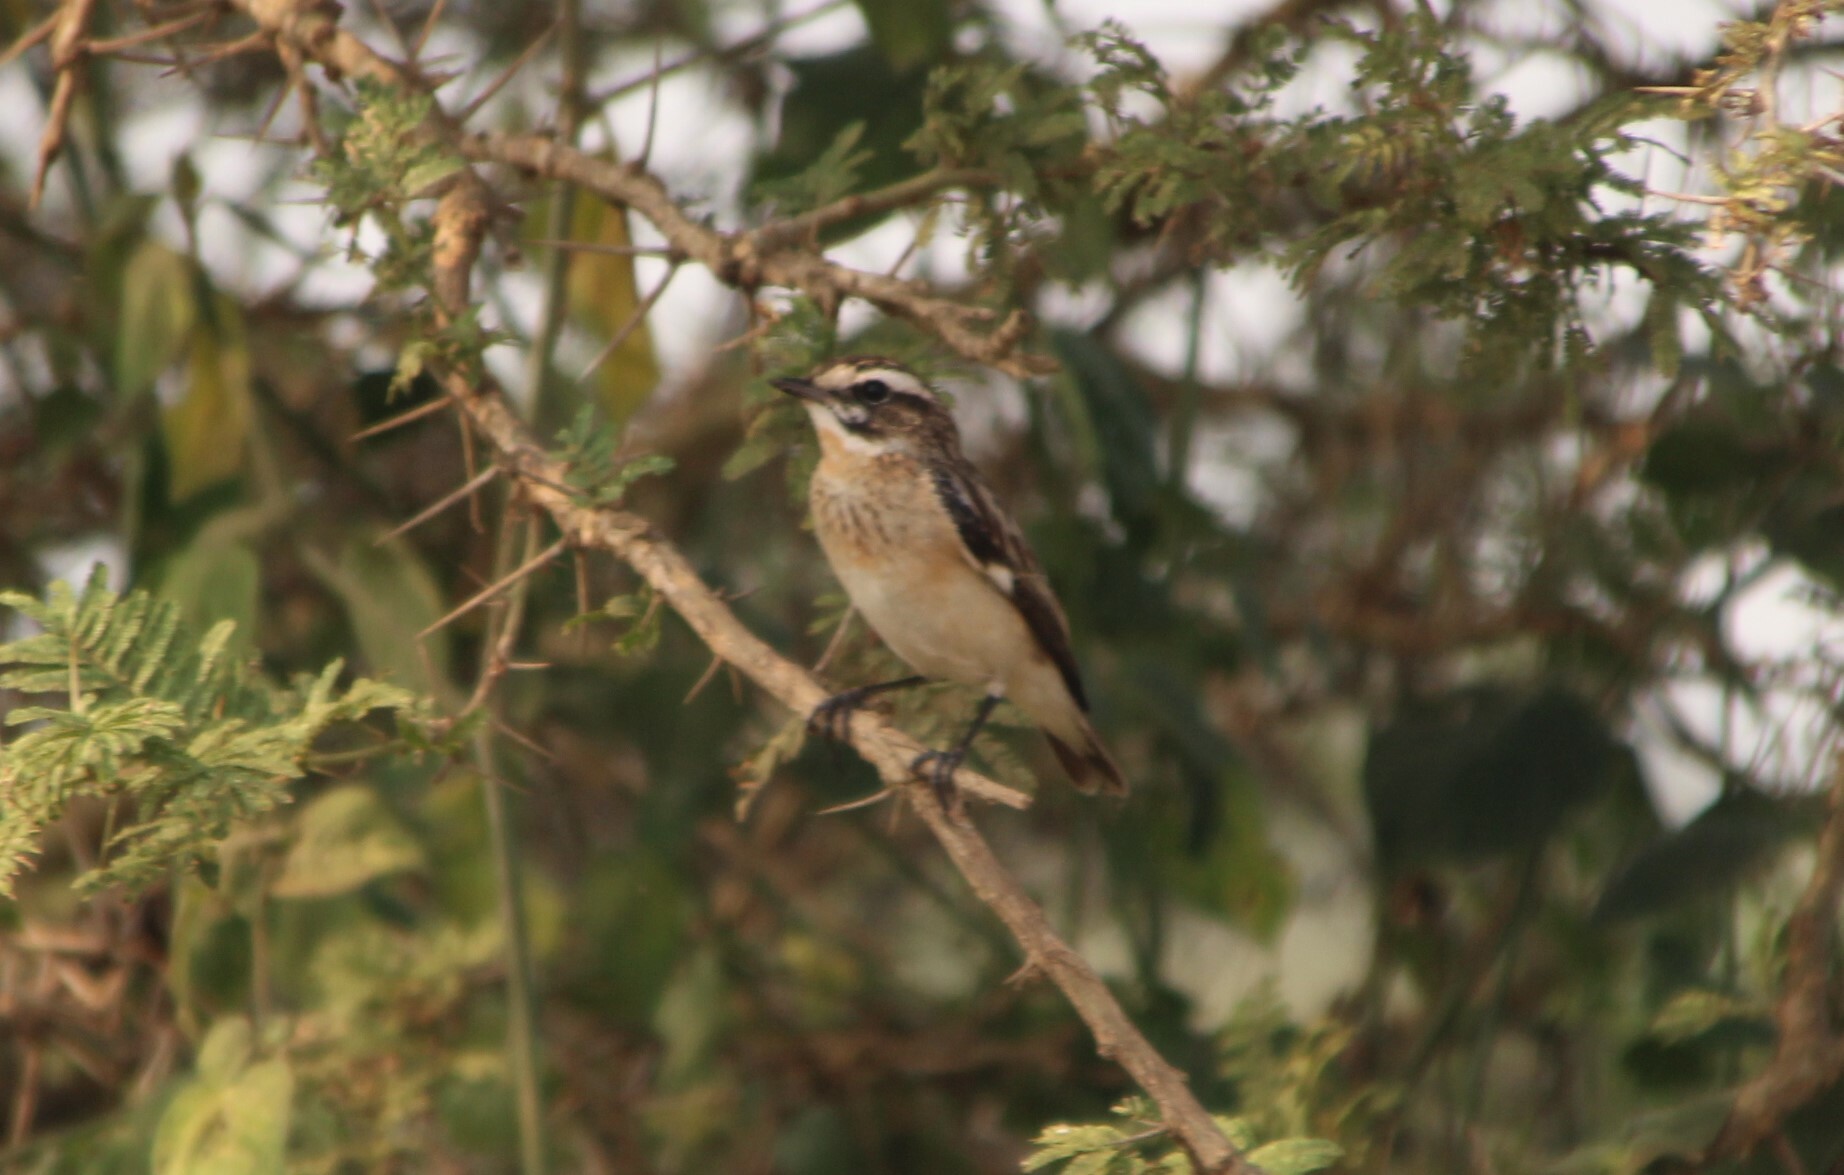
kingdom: Animalia
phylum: Chordata
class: Aves
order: Passeriformes
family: Muscicapidae
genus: Saxicola
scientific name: Saxicola rubetra
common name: Whinchat
